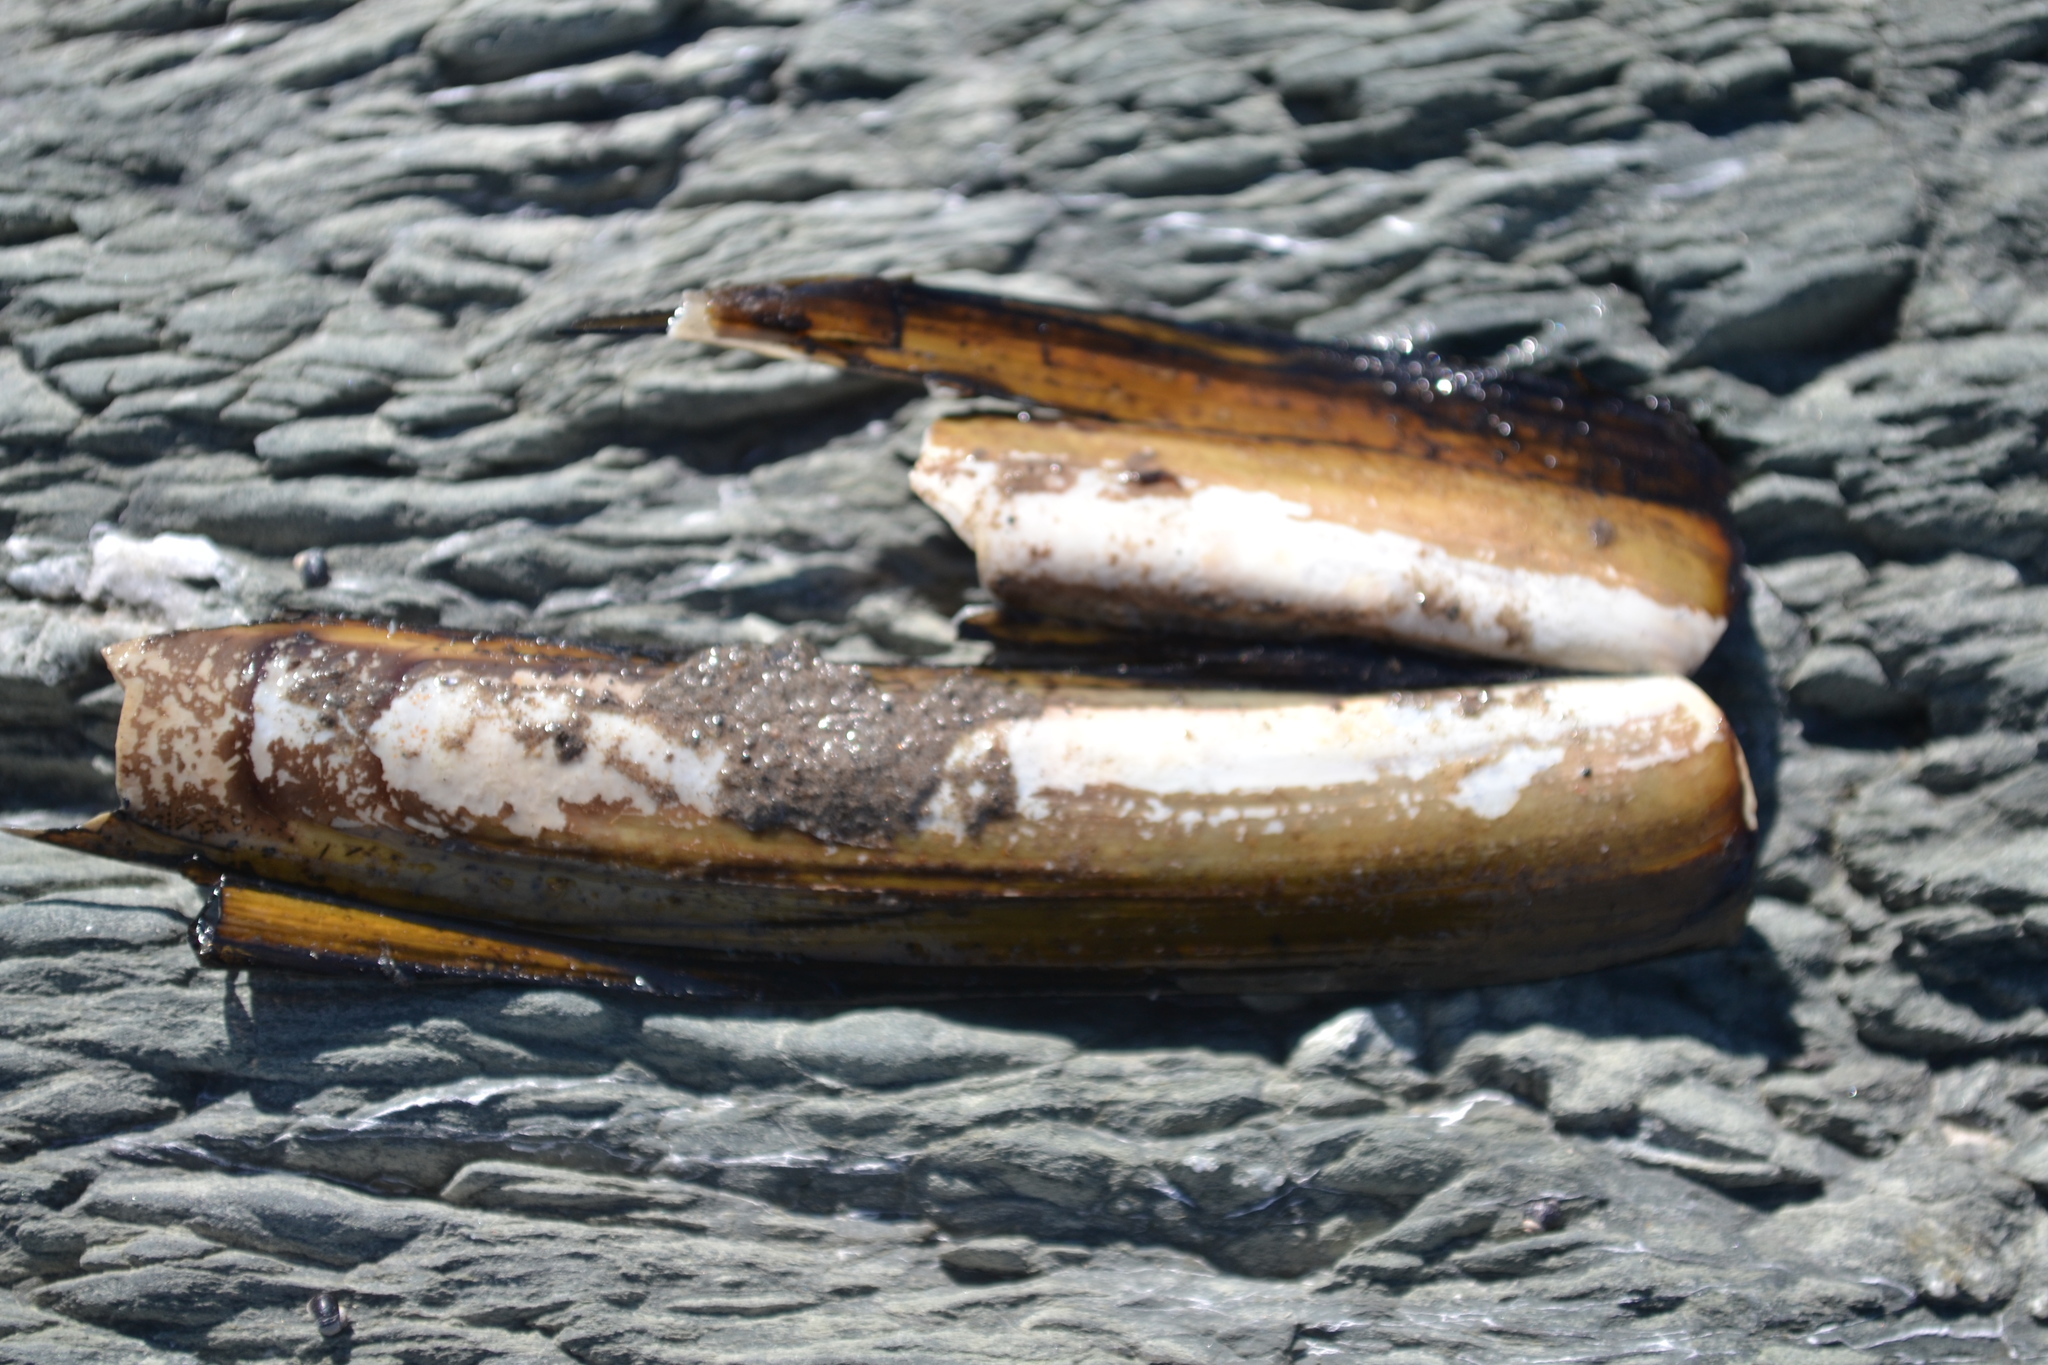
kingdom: Animalia
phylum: Mollusca
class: Bivalvia
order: Adapedonta
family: Pharidae
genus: Ensis
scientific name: Ensis leei
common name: American jack knife clam
